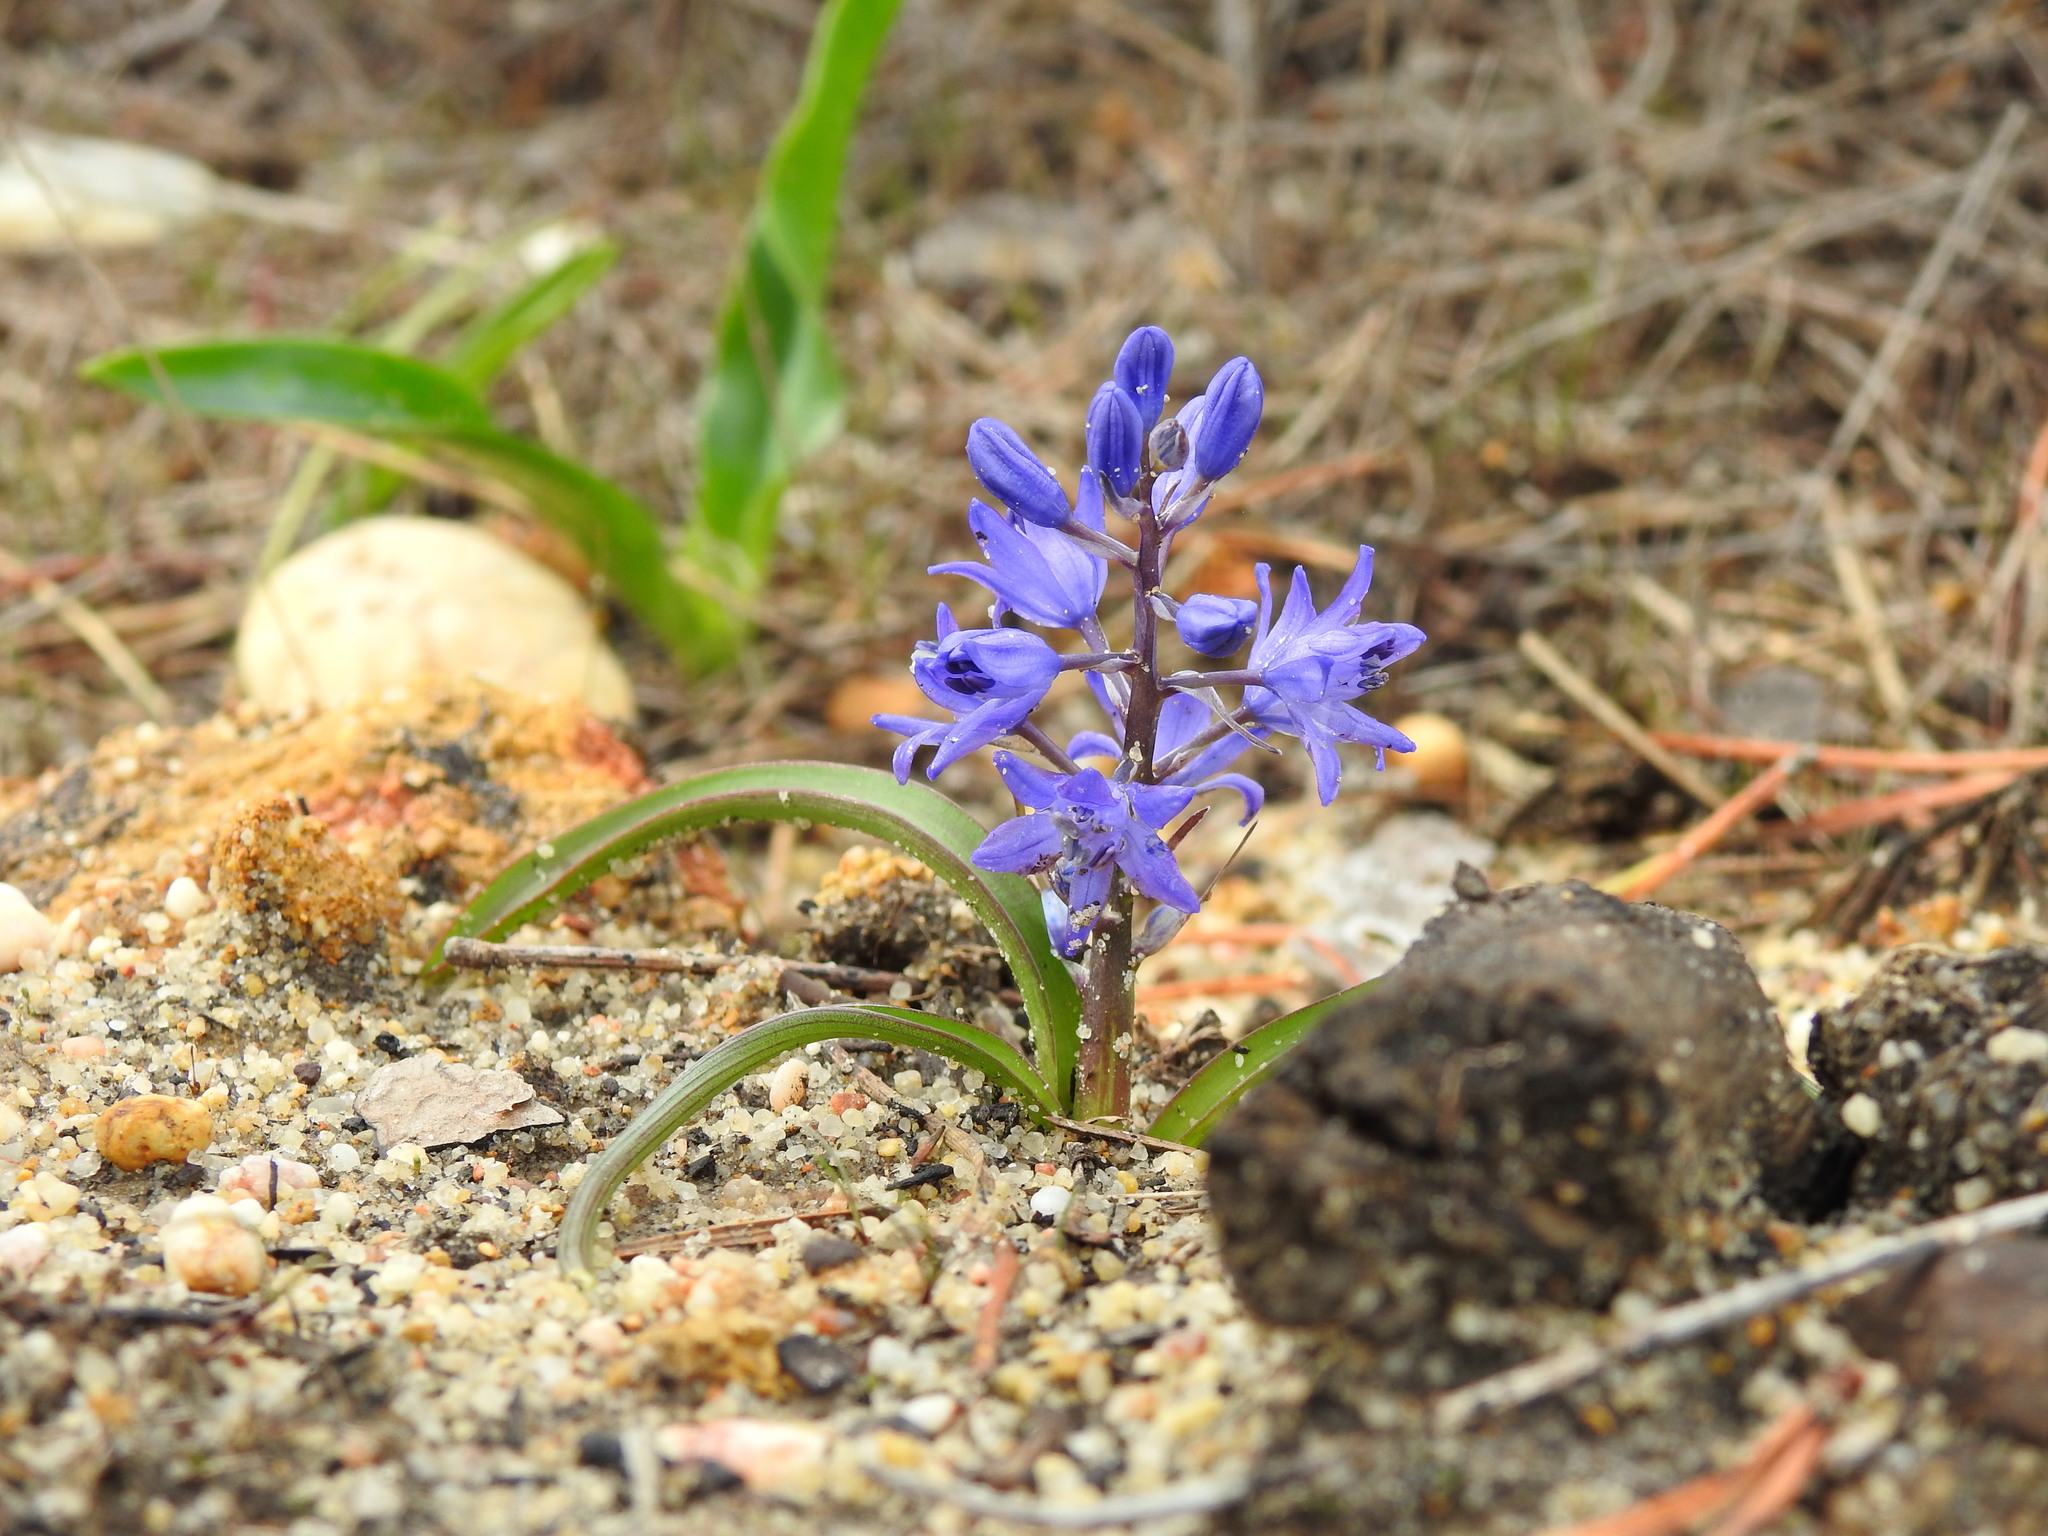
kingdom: Plantae
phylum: Tracheophyta
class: Liliopsida
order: Asparagales
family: Asparagaceae
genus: Scilla
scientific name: Scilla verna
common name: Spring squill
